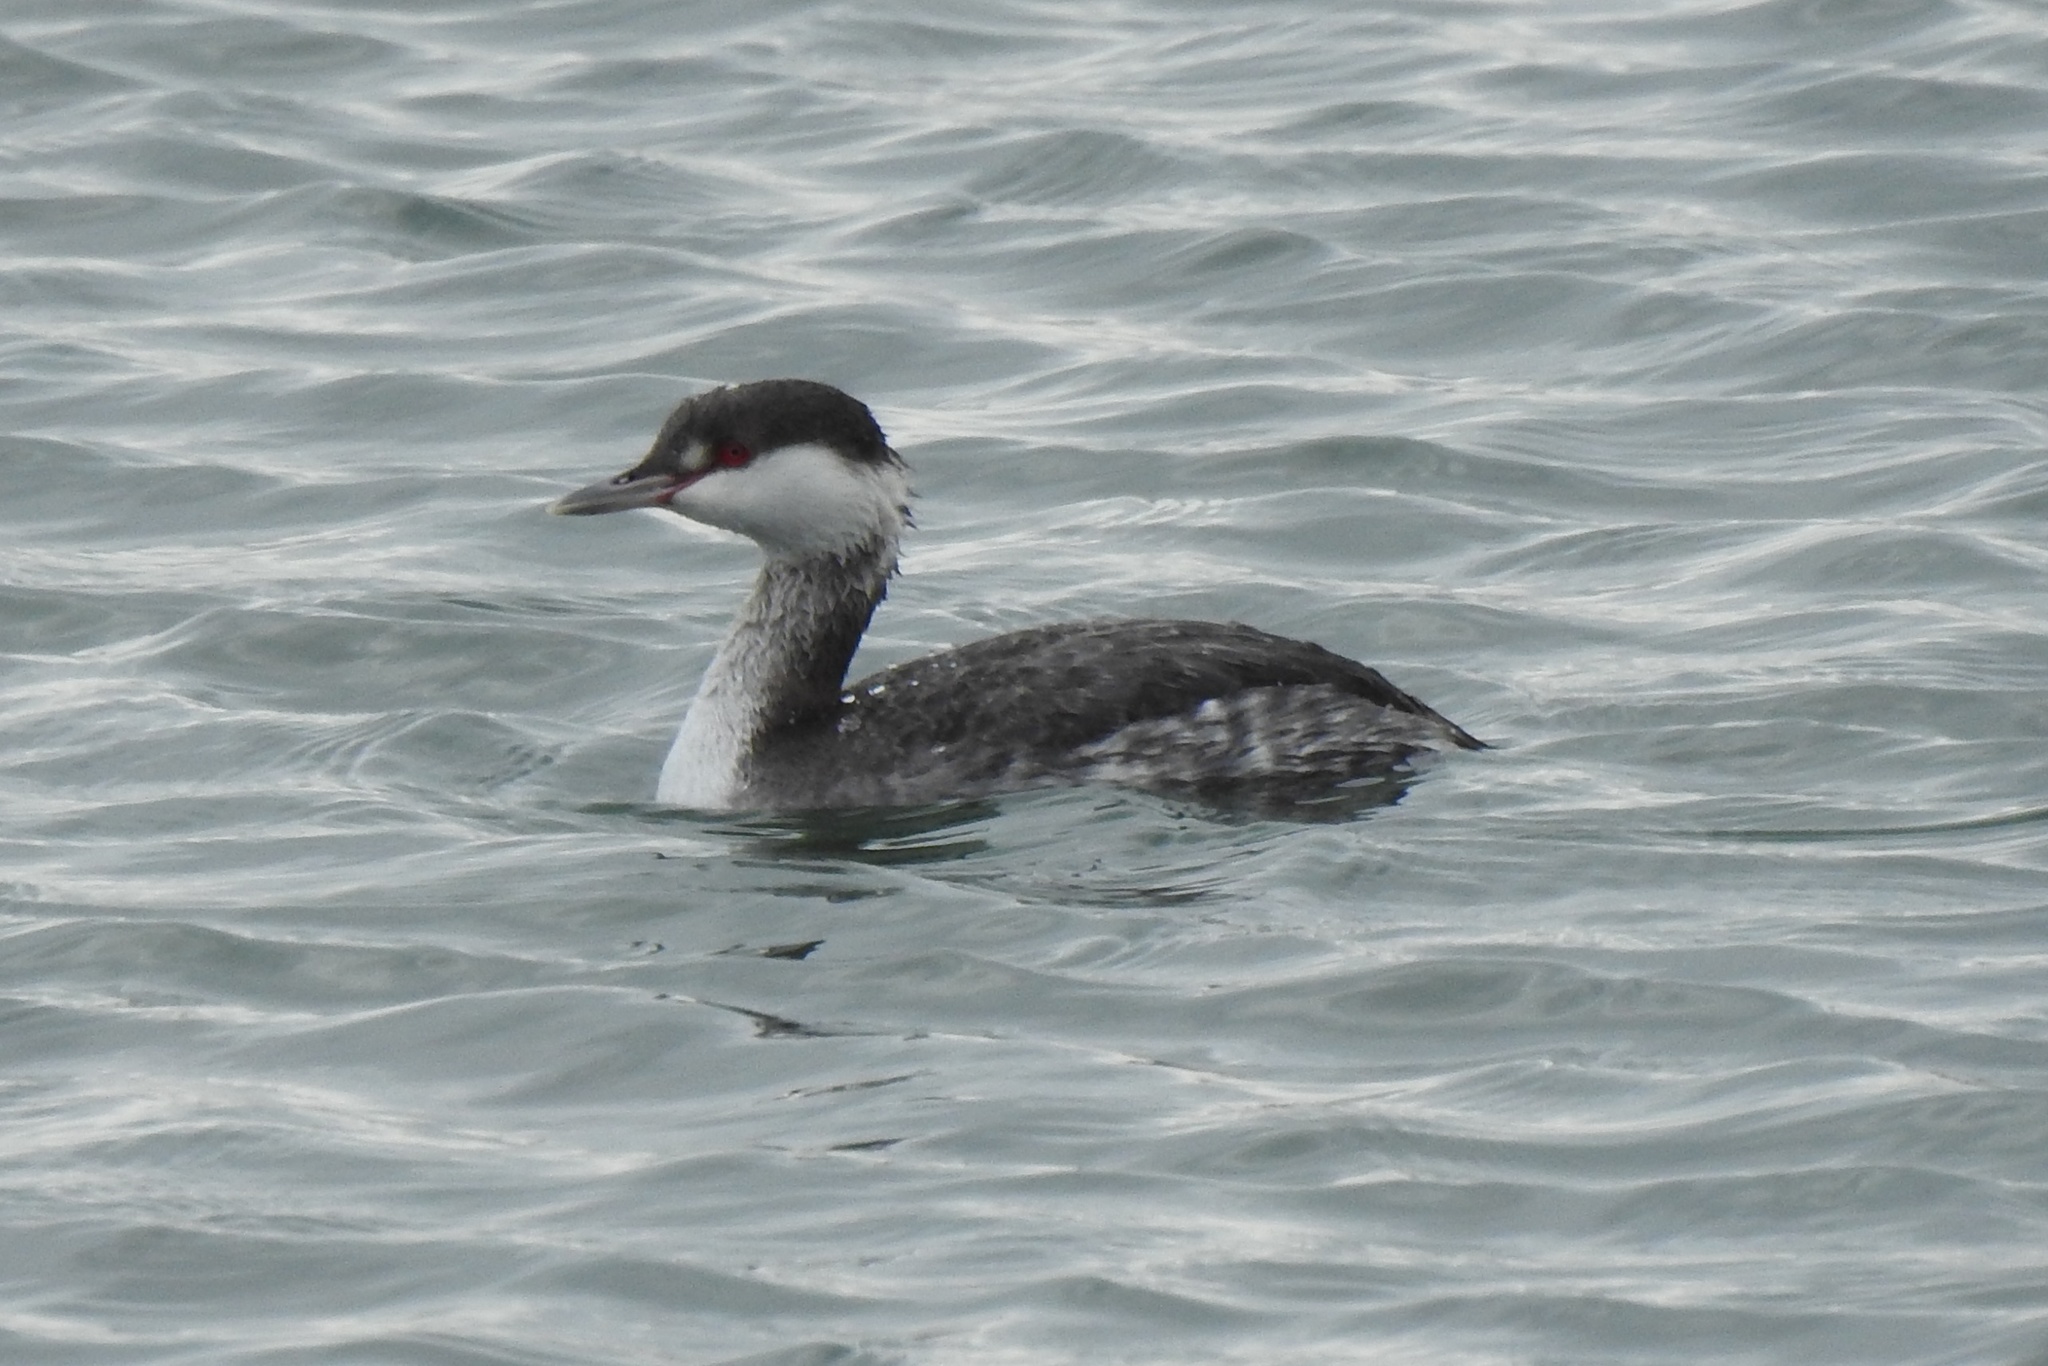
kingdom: Animalia
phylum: Chordata
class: Aves
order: Podicipediformes
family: Podicipedidae
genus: Podiceps
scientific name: Podiceps auritus
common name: Horned grebe
